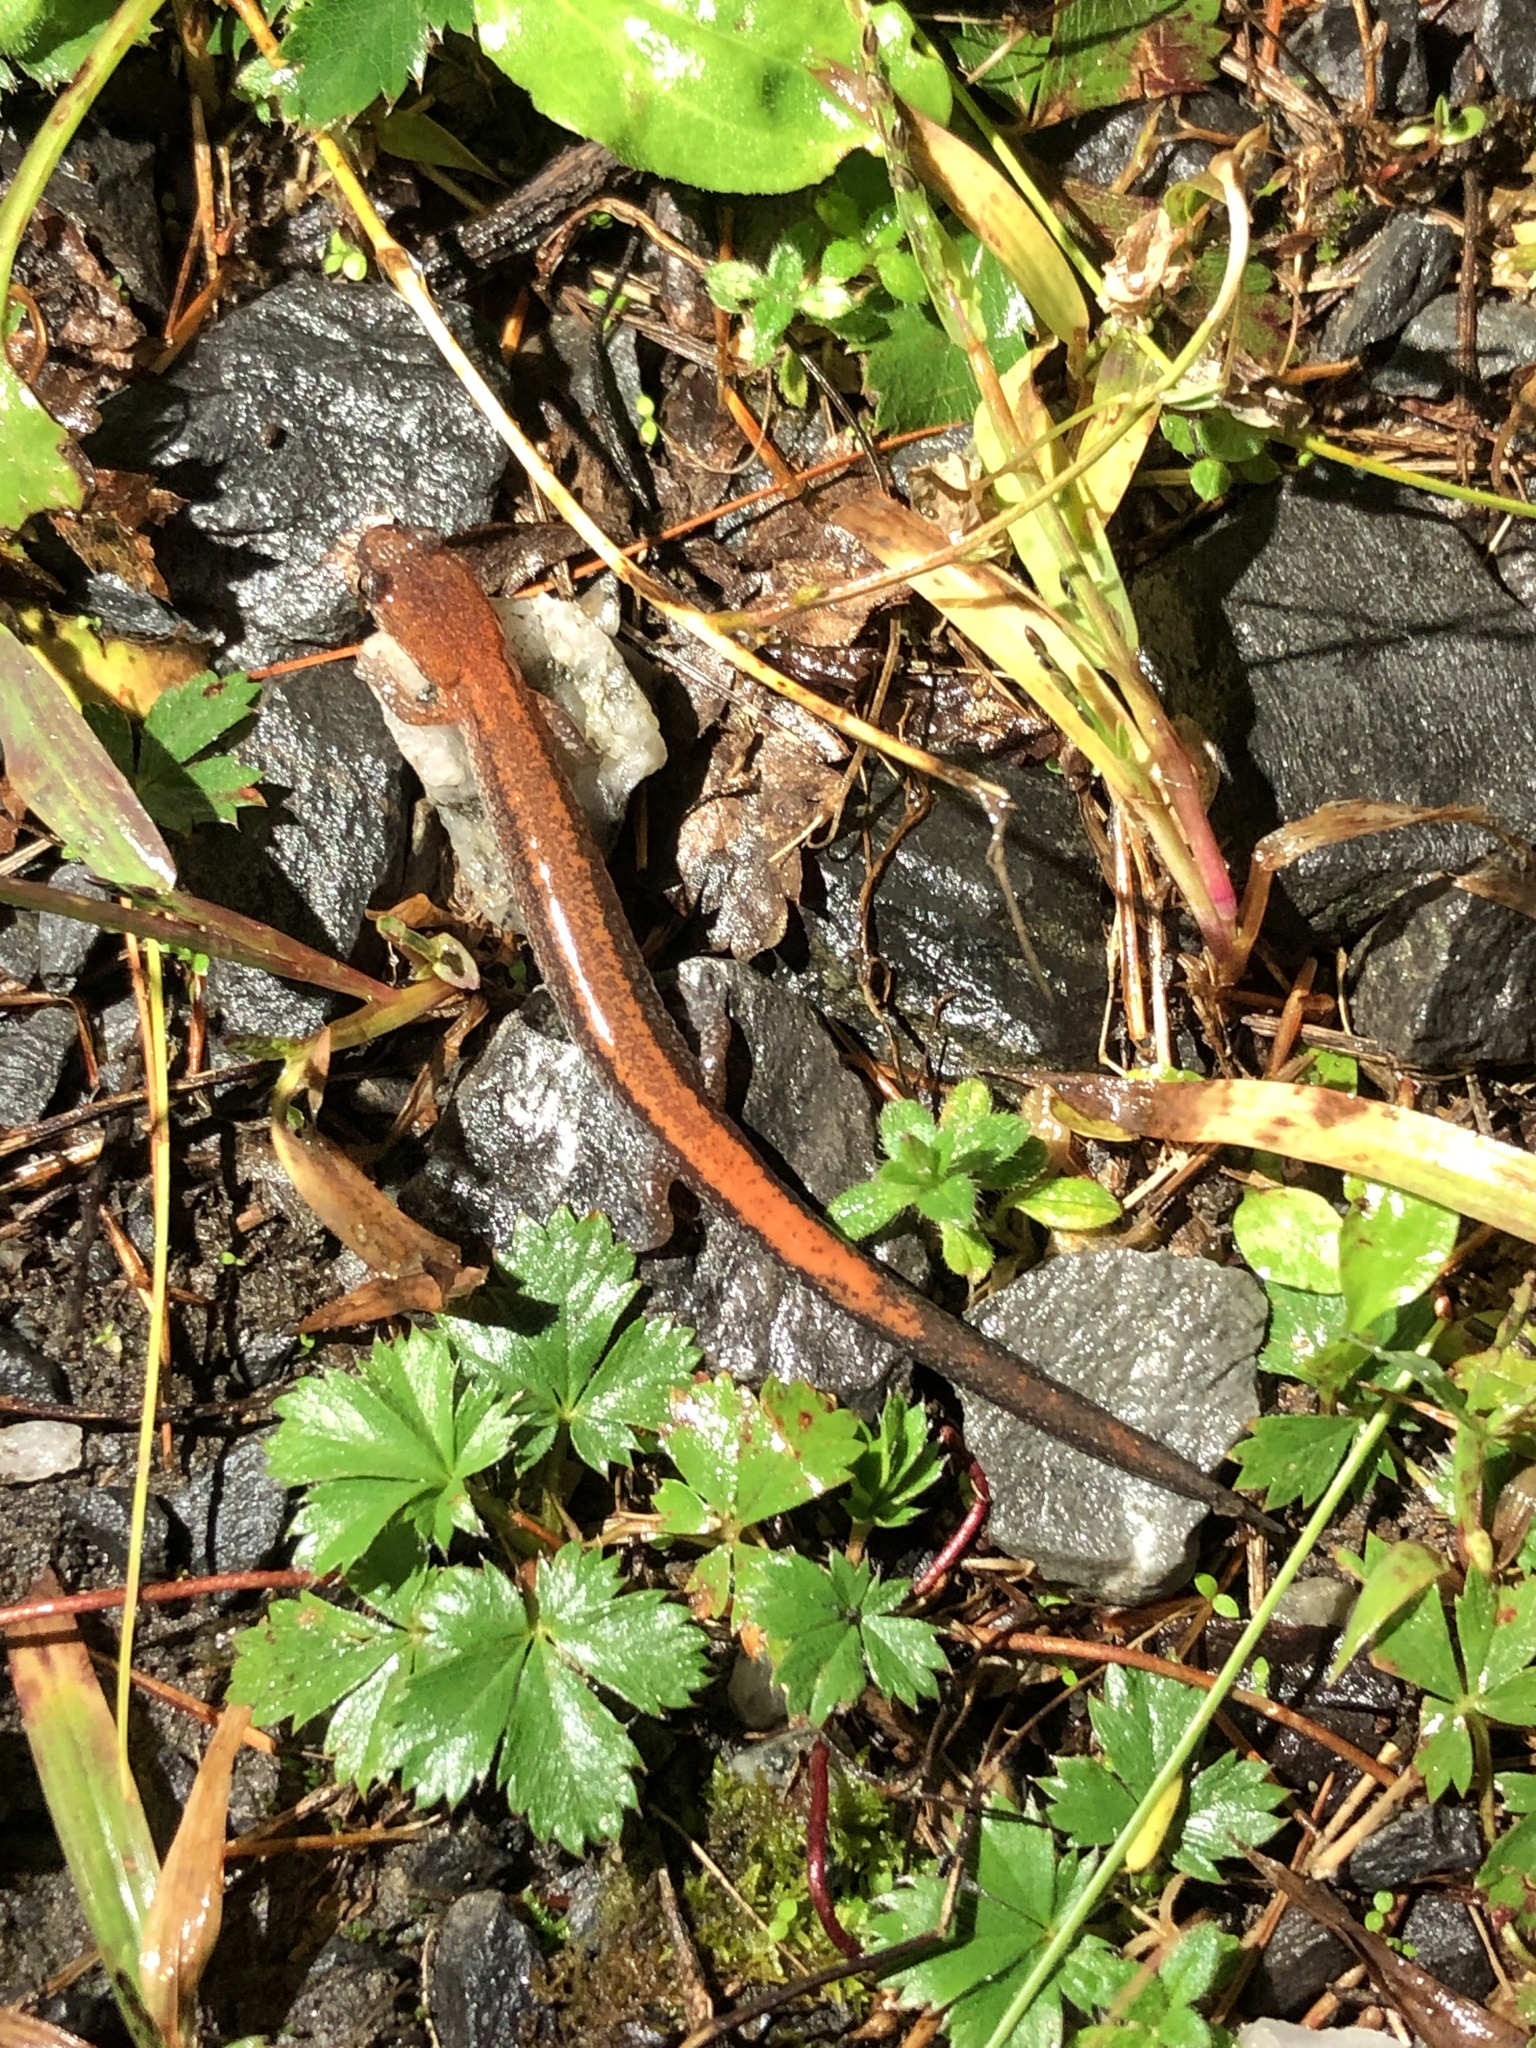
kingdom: Animalia
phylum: Chordata
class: Amphibia
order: Caudata
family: Plethodontidae
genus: Plethodon
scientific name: Plethodon cinereus
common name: Redback salamander
